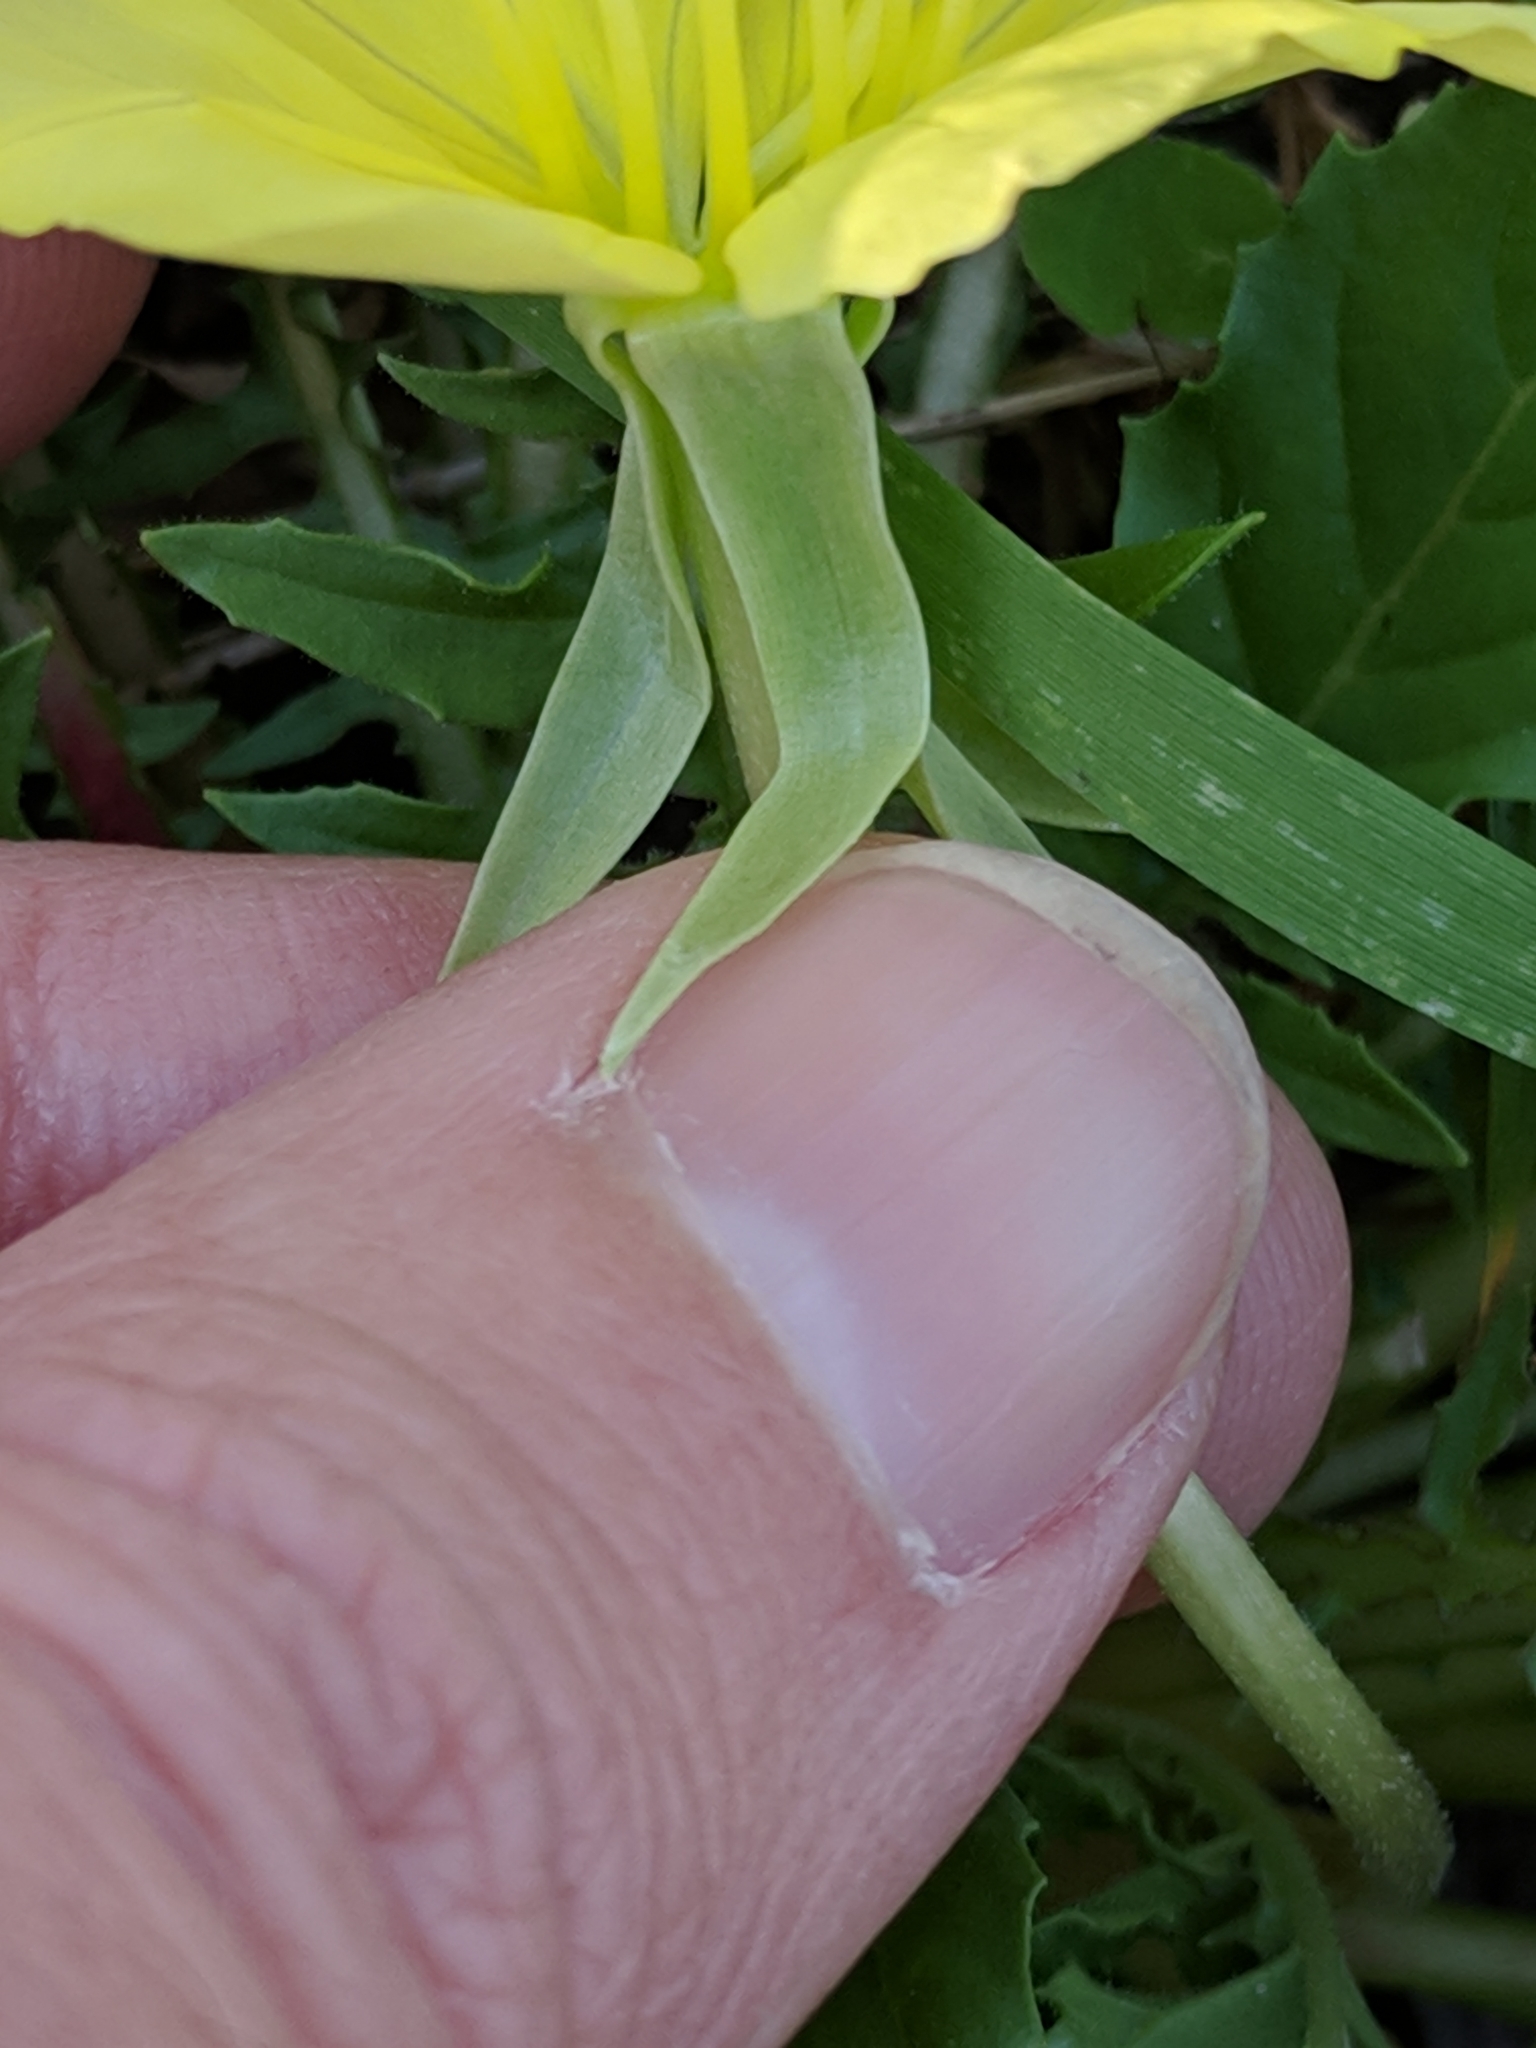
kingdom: Plantae
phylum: Tracheophyta
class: Magnoliopsida
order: Myrtales
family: Onagraceae
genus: Oenothera
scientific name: Oenothera triloba
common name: Sessile evening-primrose
